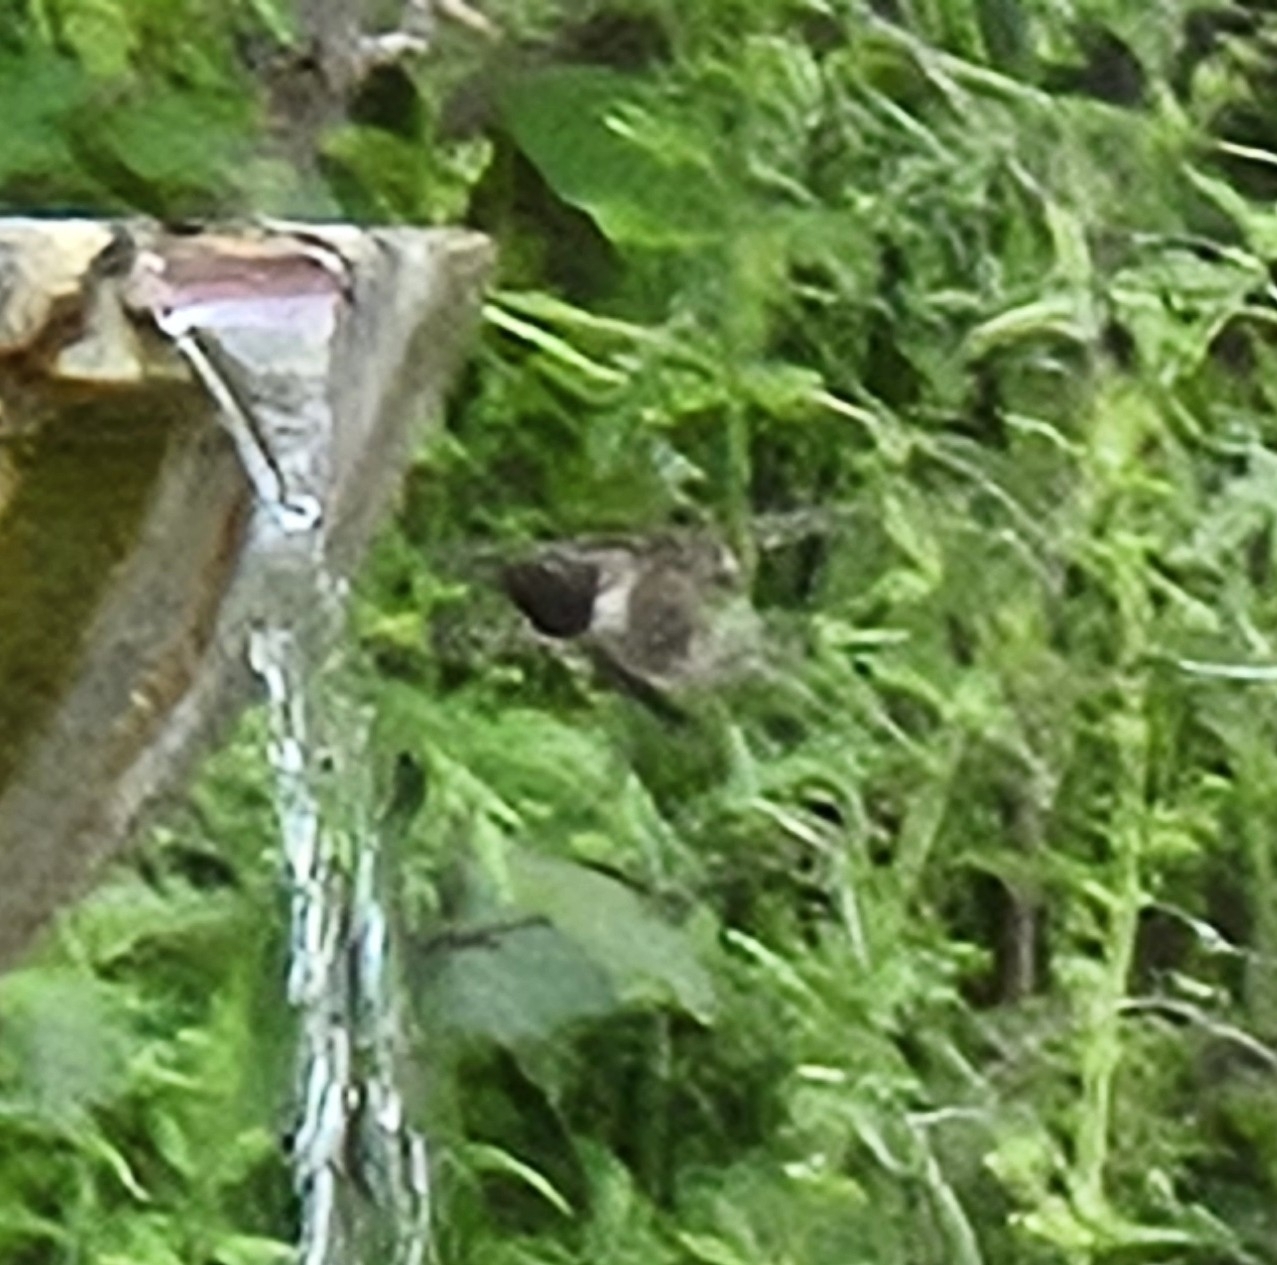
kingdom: Animalia
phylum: Chordata
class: Aves
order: Apodiformes
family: Trochilidae
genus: Archilochus
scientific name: Archilochus alexandri
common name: Black-chinned hummingbird
